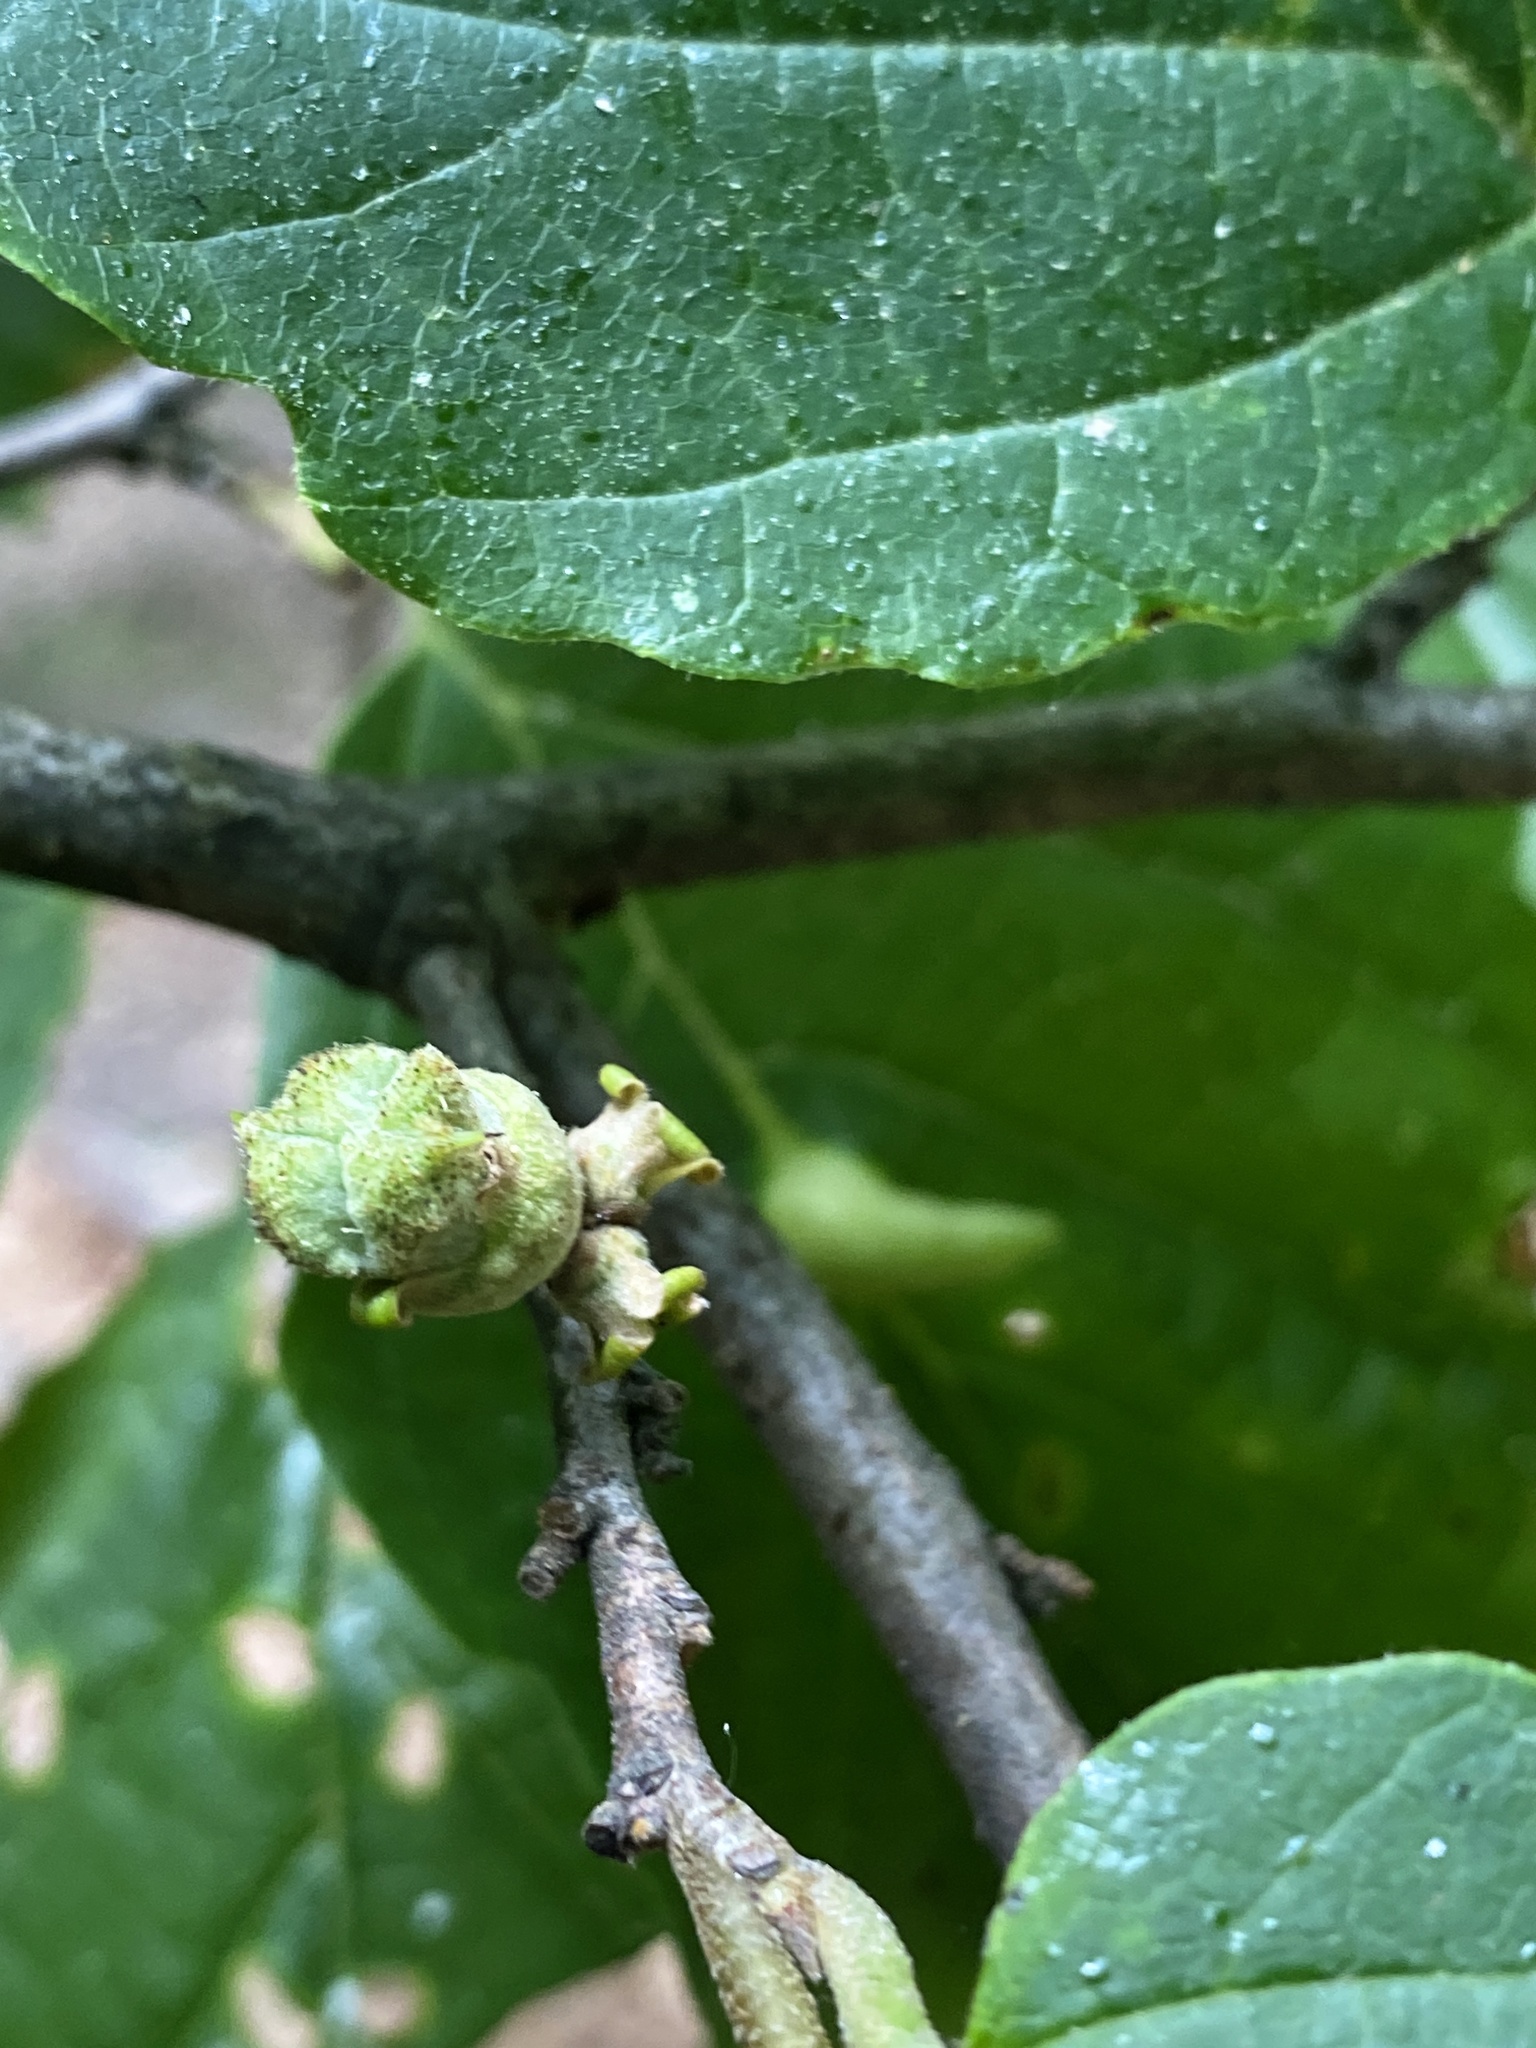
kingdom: Plantae
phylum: Tracheophyta
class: Magnoliopsida
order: Saxifragales
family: Hamamelidaceae
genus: Hamamelis
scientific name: Hamamelis virginiana
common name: Witch-hazel
